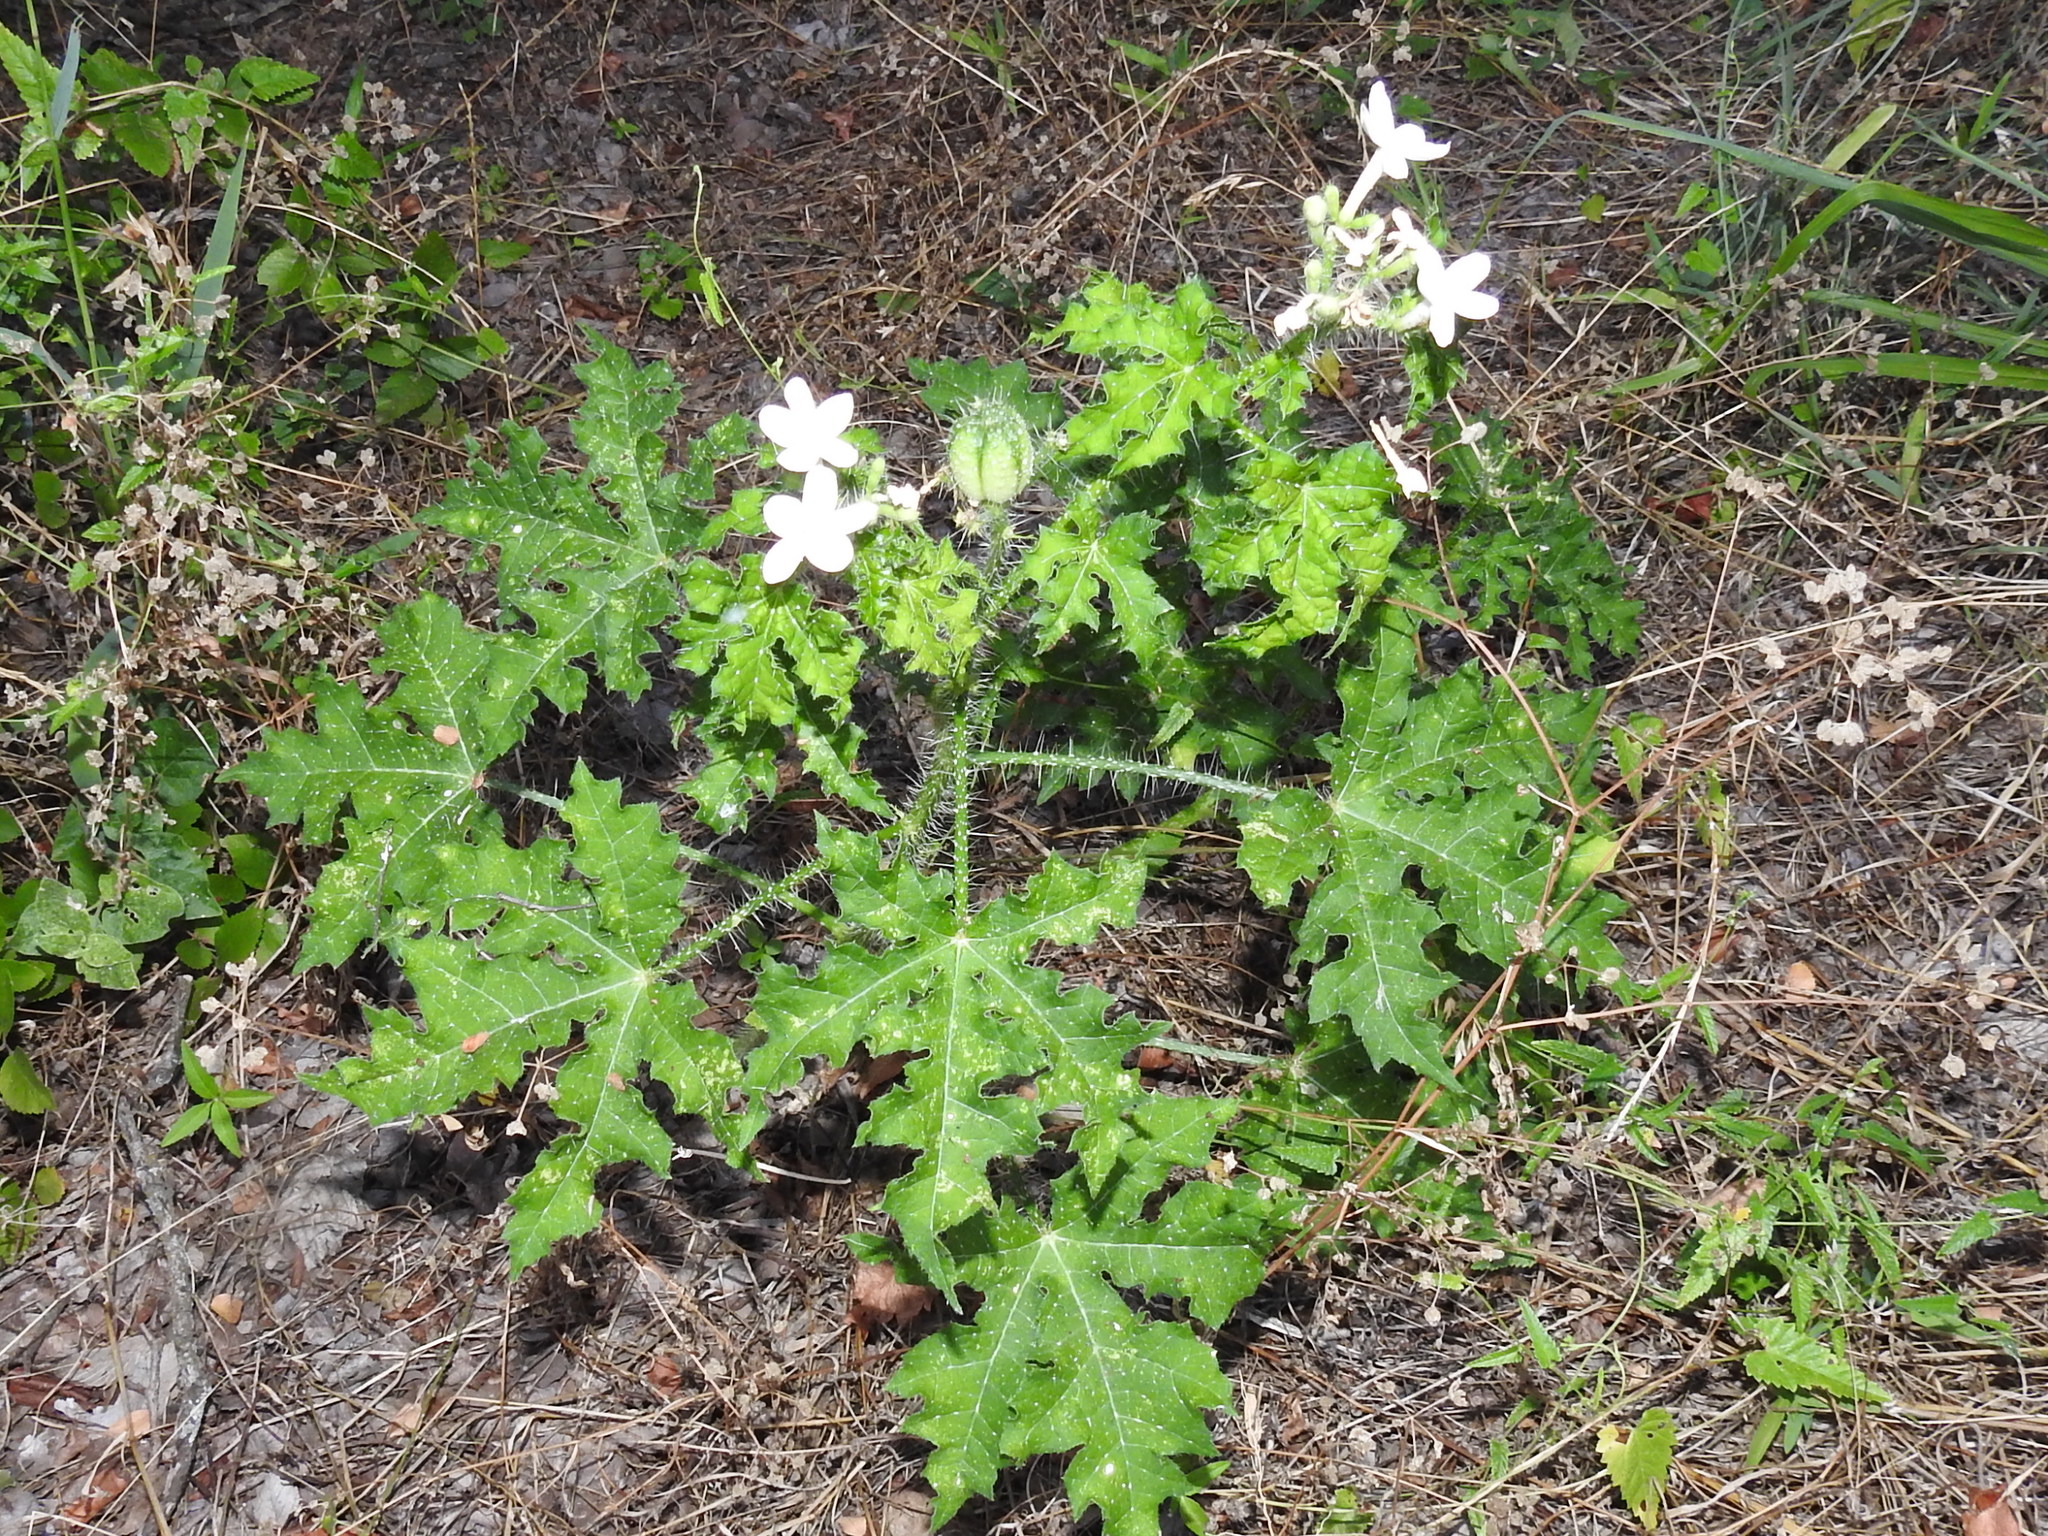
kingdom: Plantae
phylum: Tracheophyta
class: Magnoliopsida
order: Malpighiales
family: Euphorbiaceae
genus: Cnidoscolus
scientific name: Cnidoscolus texanus
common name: Texas bull-nettle
